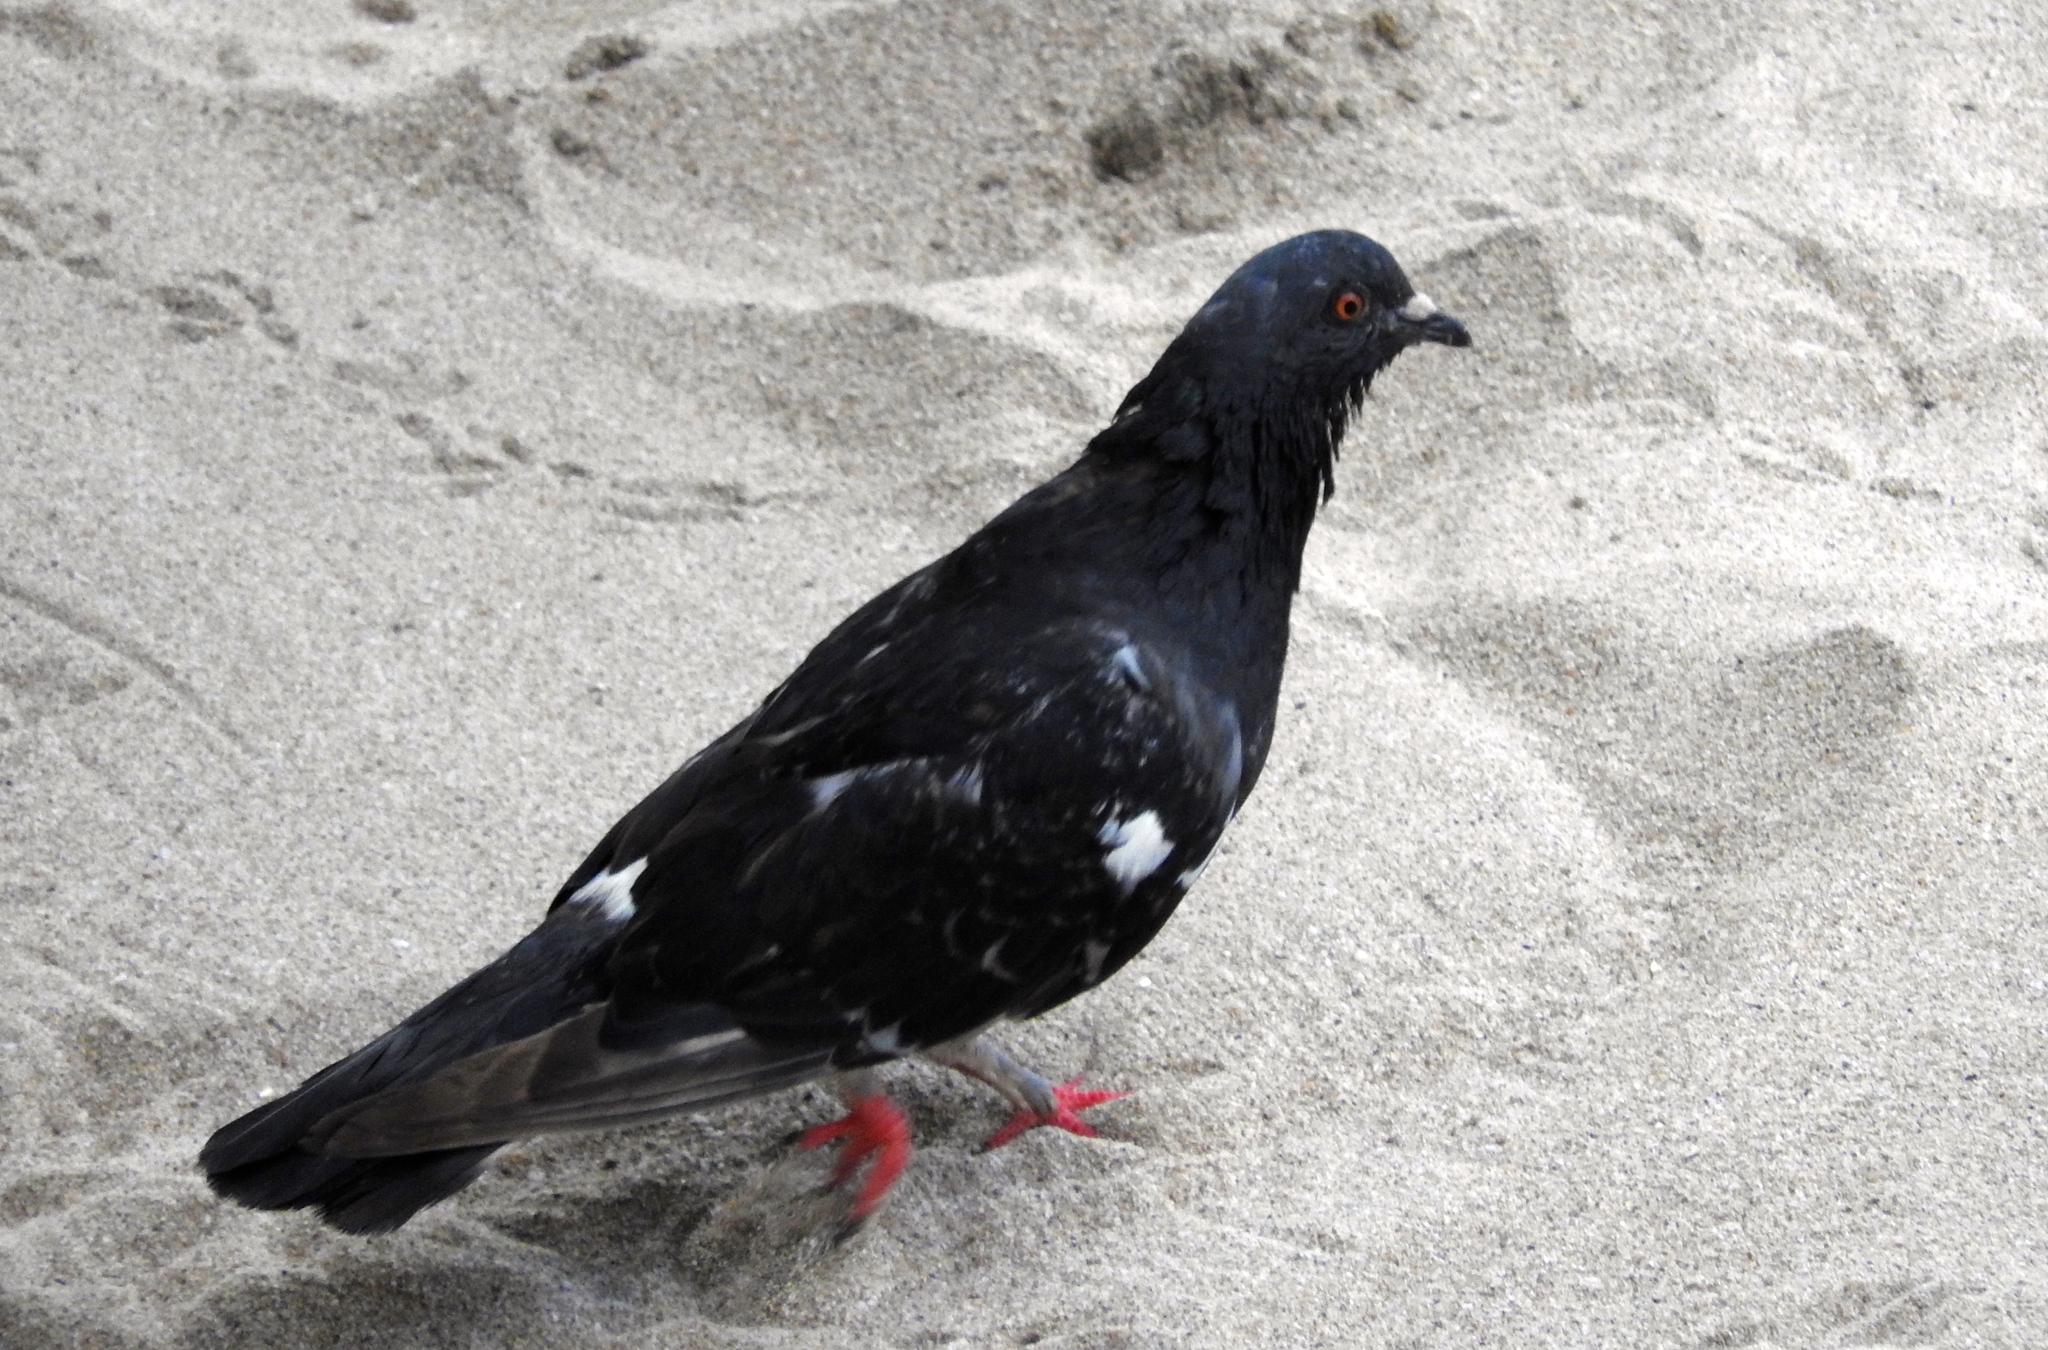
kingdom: Animalia
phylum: Chordata
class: Aves
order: Columbiformes
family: Columbidae
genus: Columba
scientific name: Columba livia
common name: Rock pigeon
